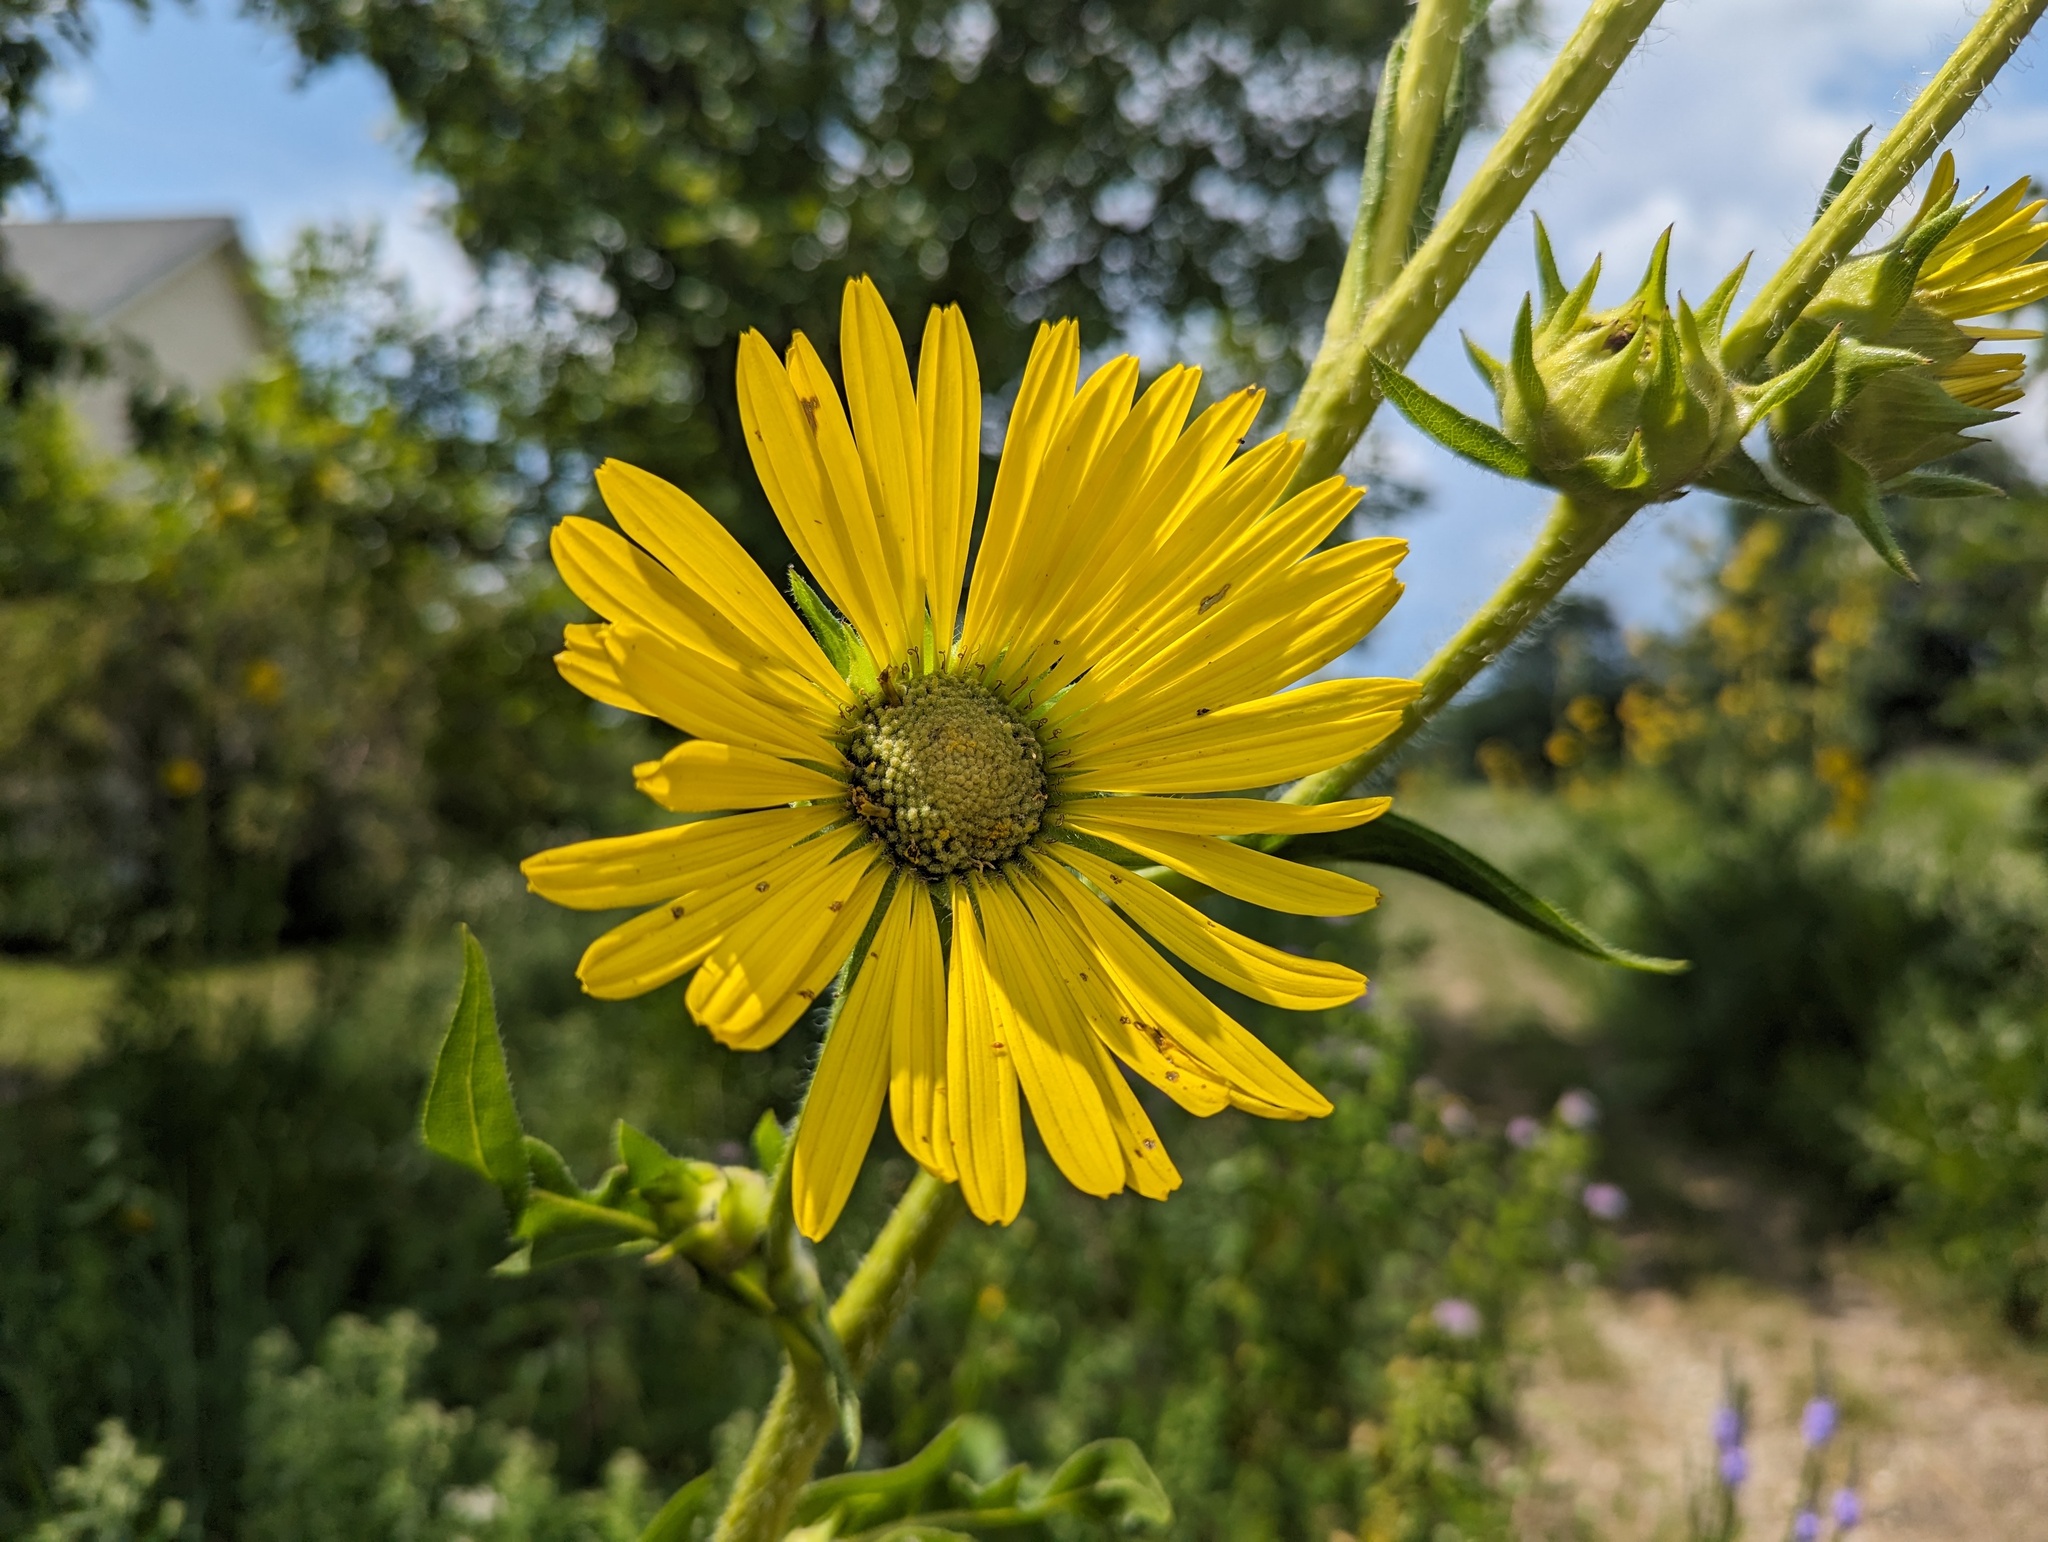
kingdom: Plantae
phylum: Tracheophyta
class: Magnoliopsida
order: Asterales
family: Asteraceae
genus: Silphium
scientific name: Silphium laciniatum
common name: Polarplant
